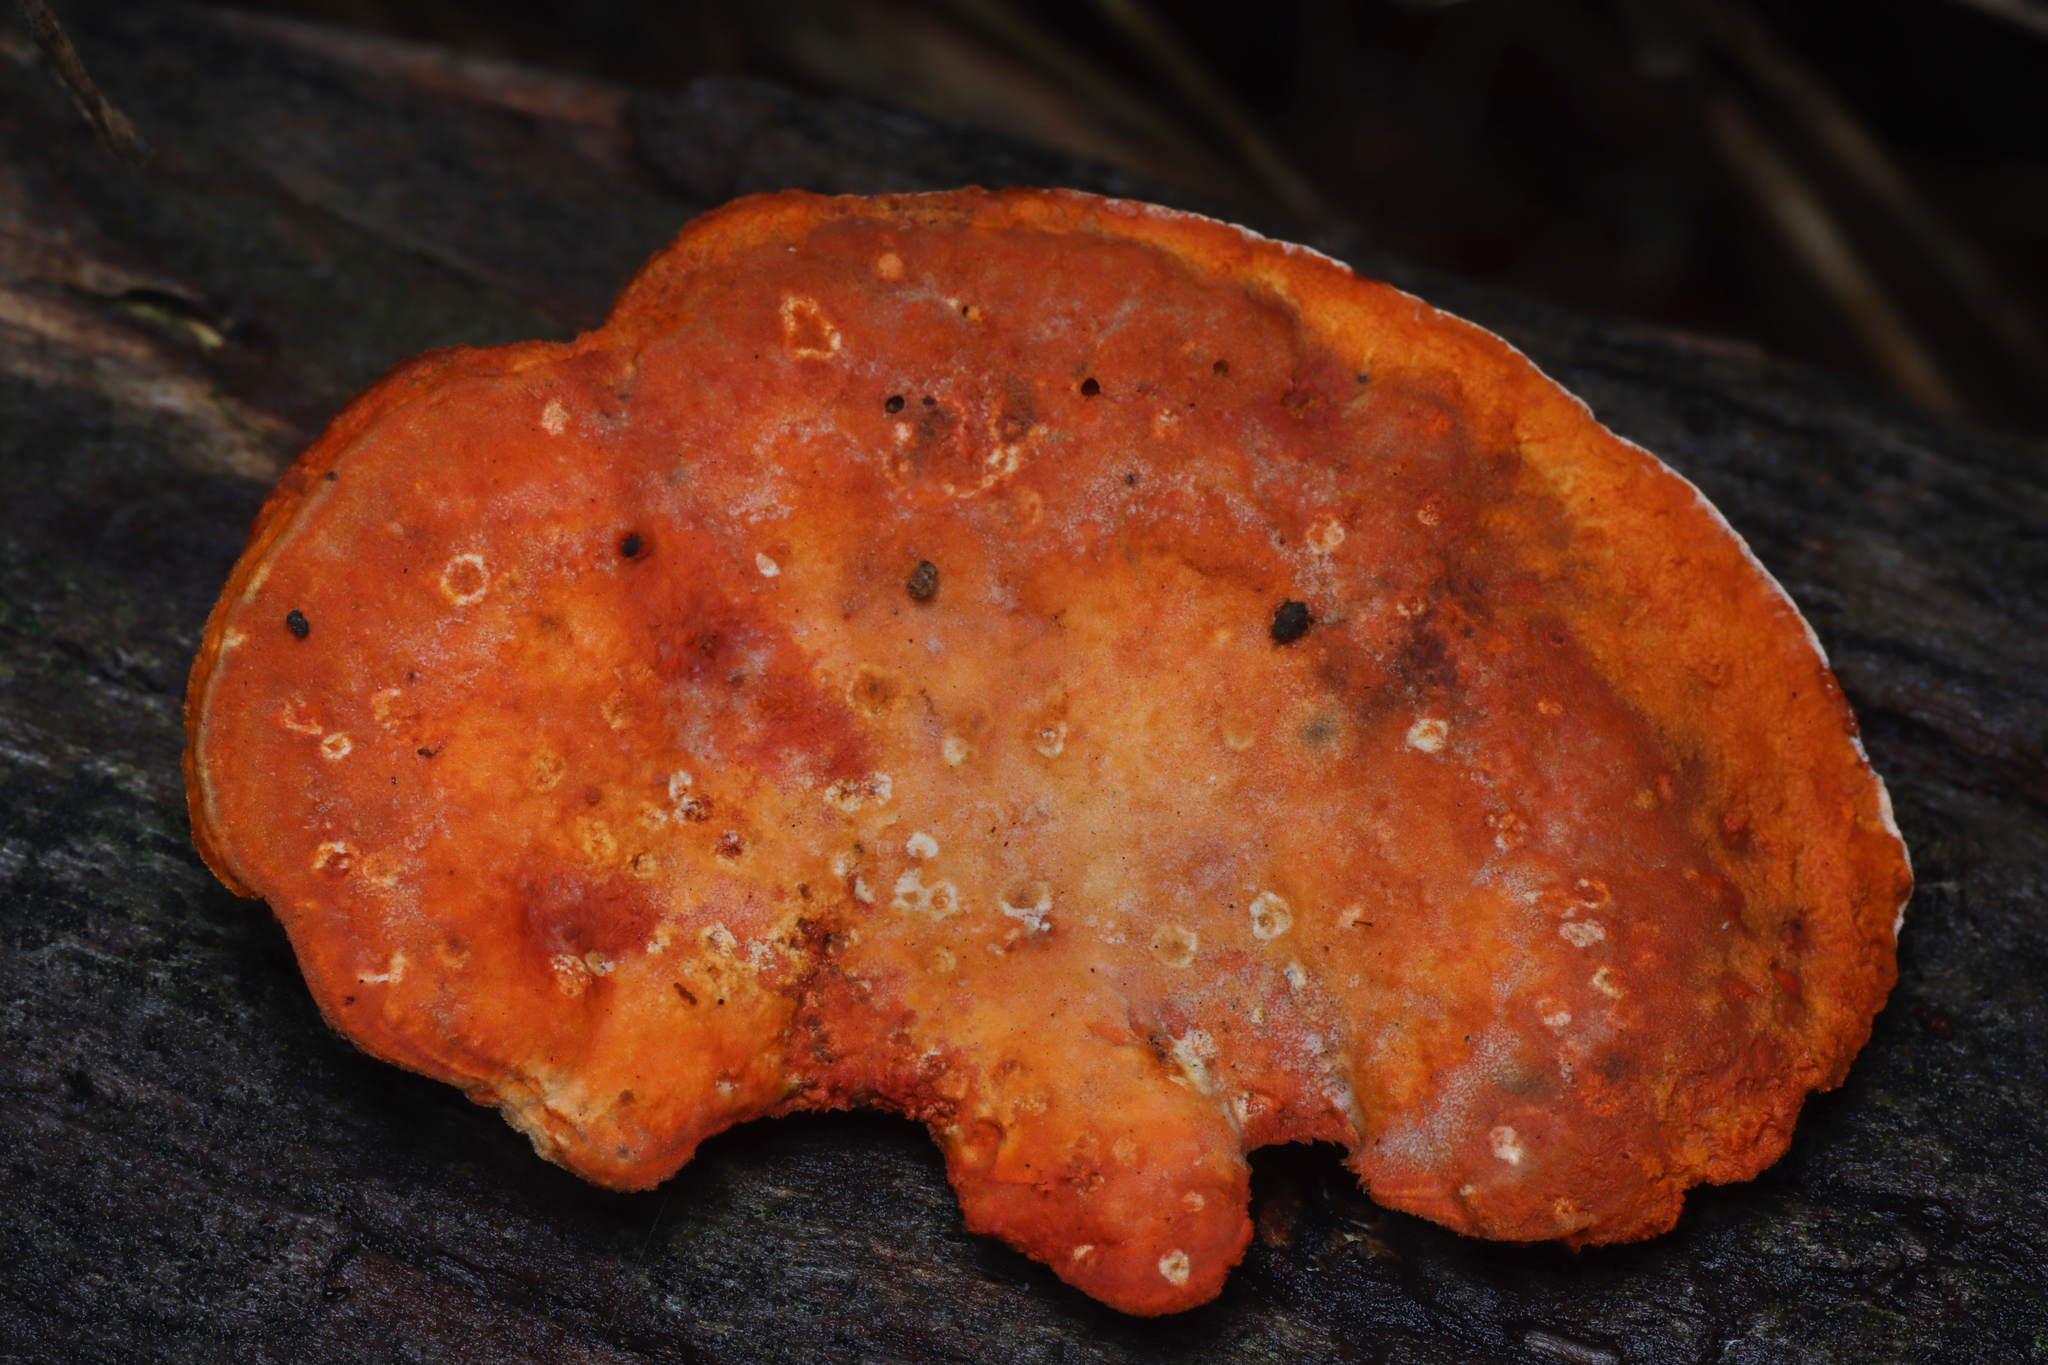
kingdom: Fungi
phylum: Basidiomycota
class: Agaricomycetes
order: Polyporales
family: Polyporaceae
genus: Trametes
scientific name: Trametes coccinea
